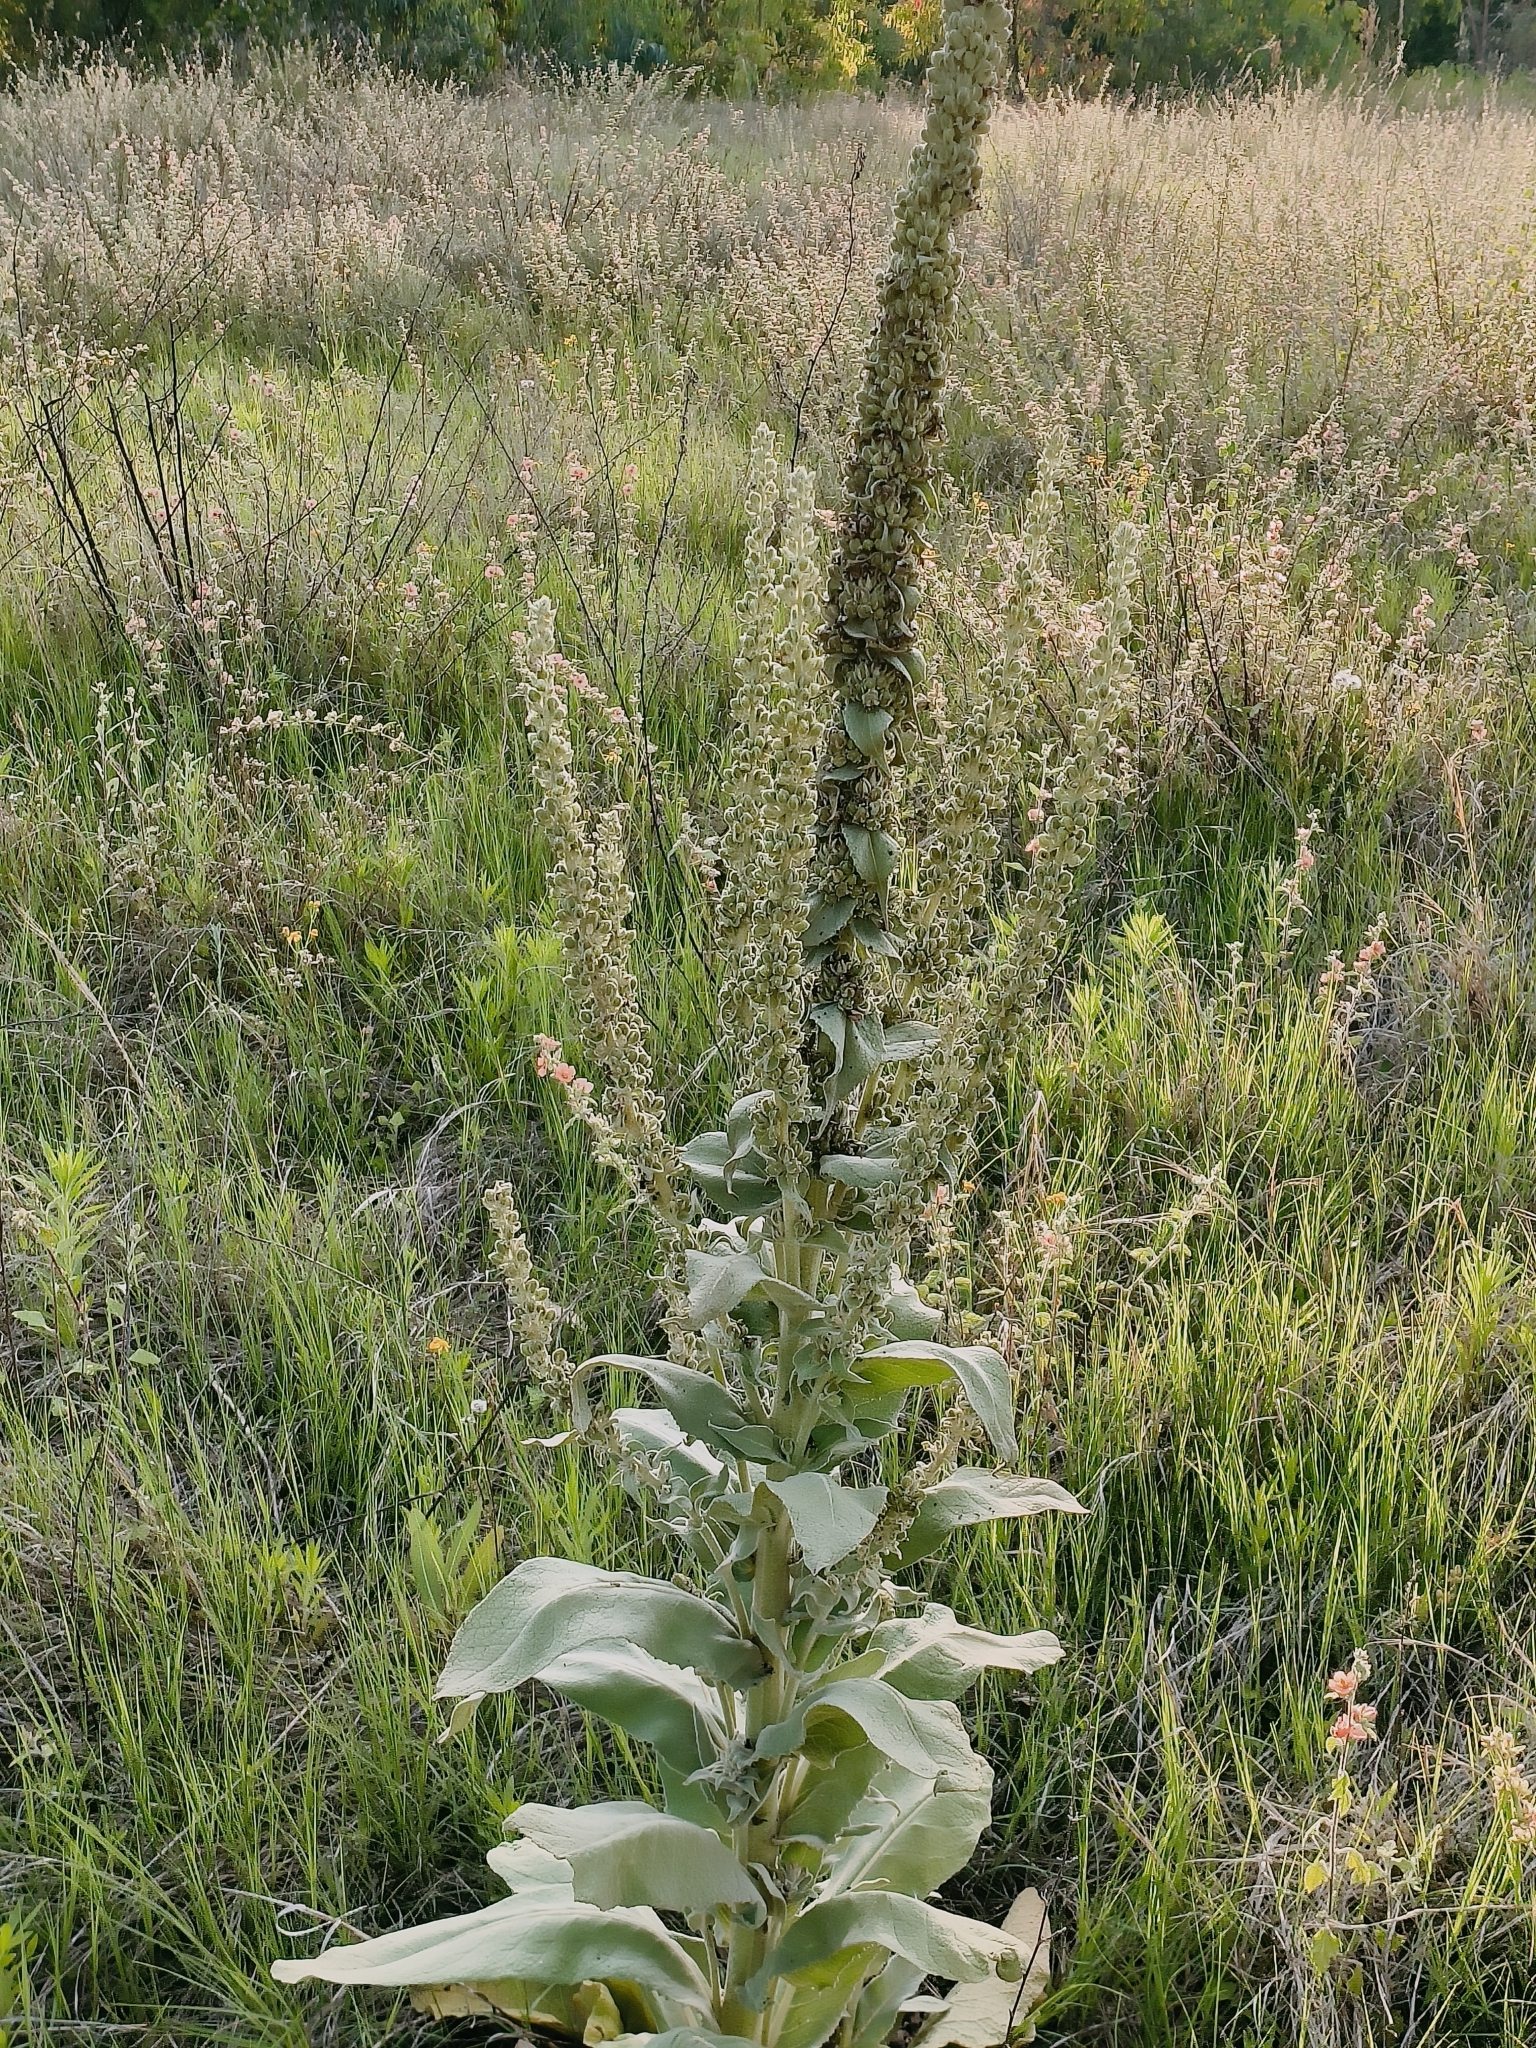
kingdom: Plantae
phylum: Tracheophyta
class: Magnoliopsida
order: Lamiales
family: Scrophulariaceae
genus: Verbascum
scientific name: Verbascum densiflorum
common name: Dense-flowered mullein
